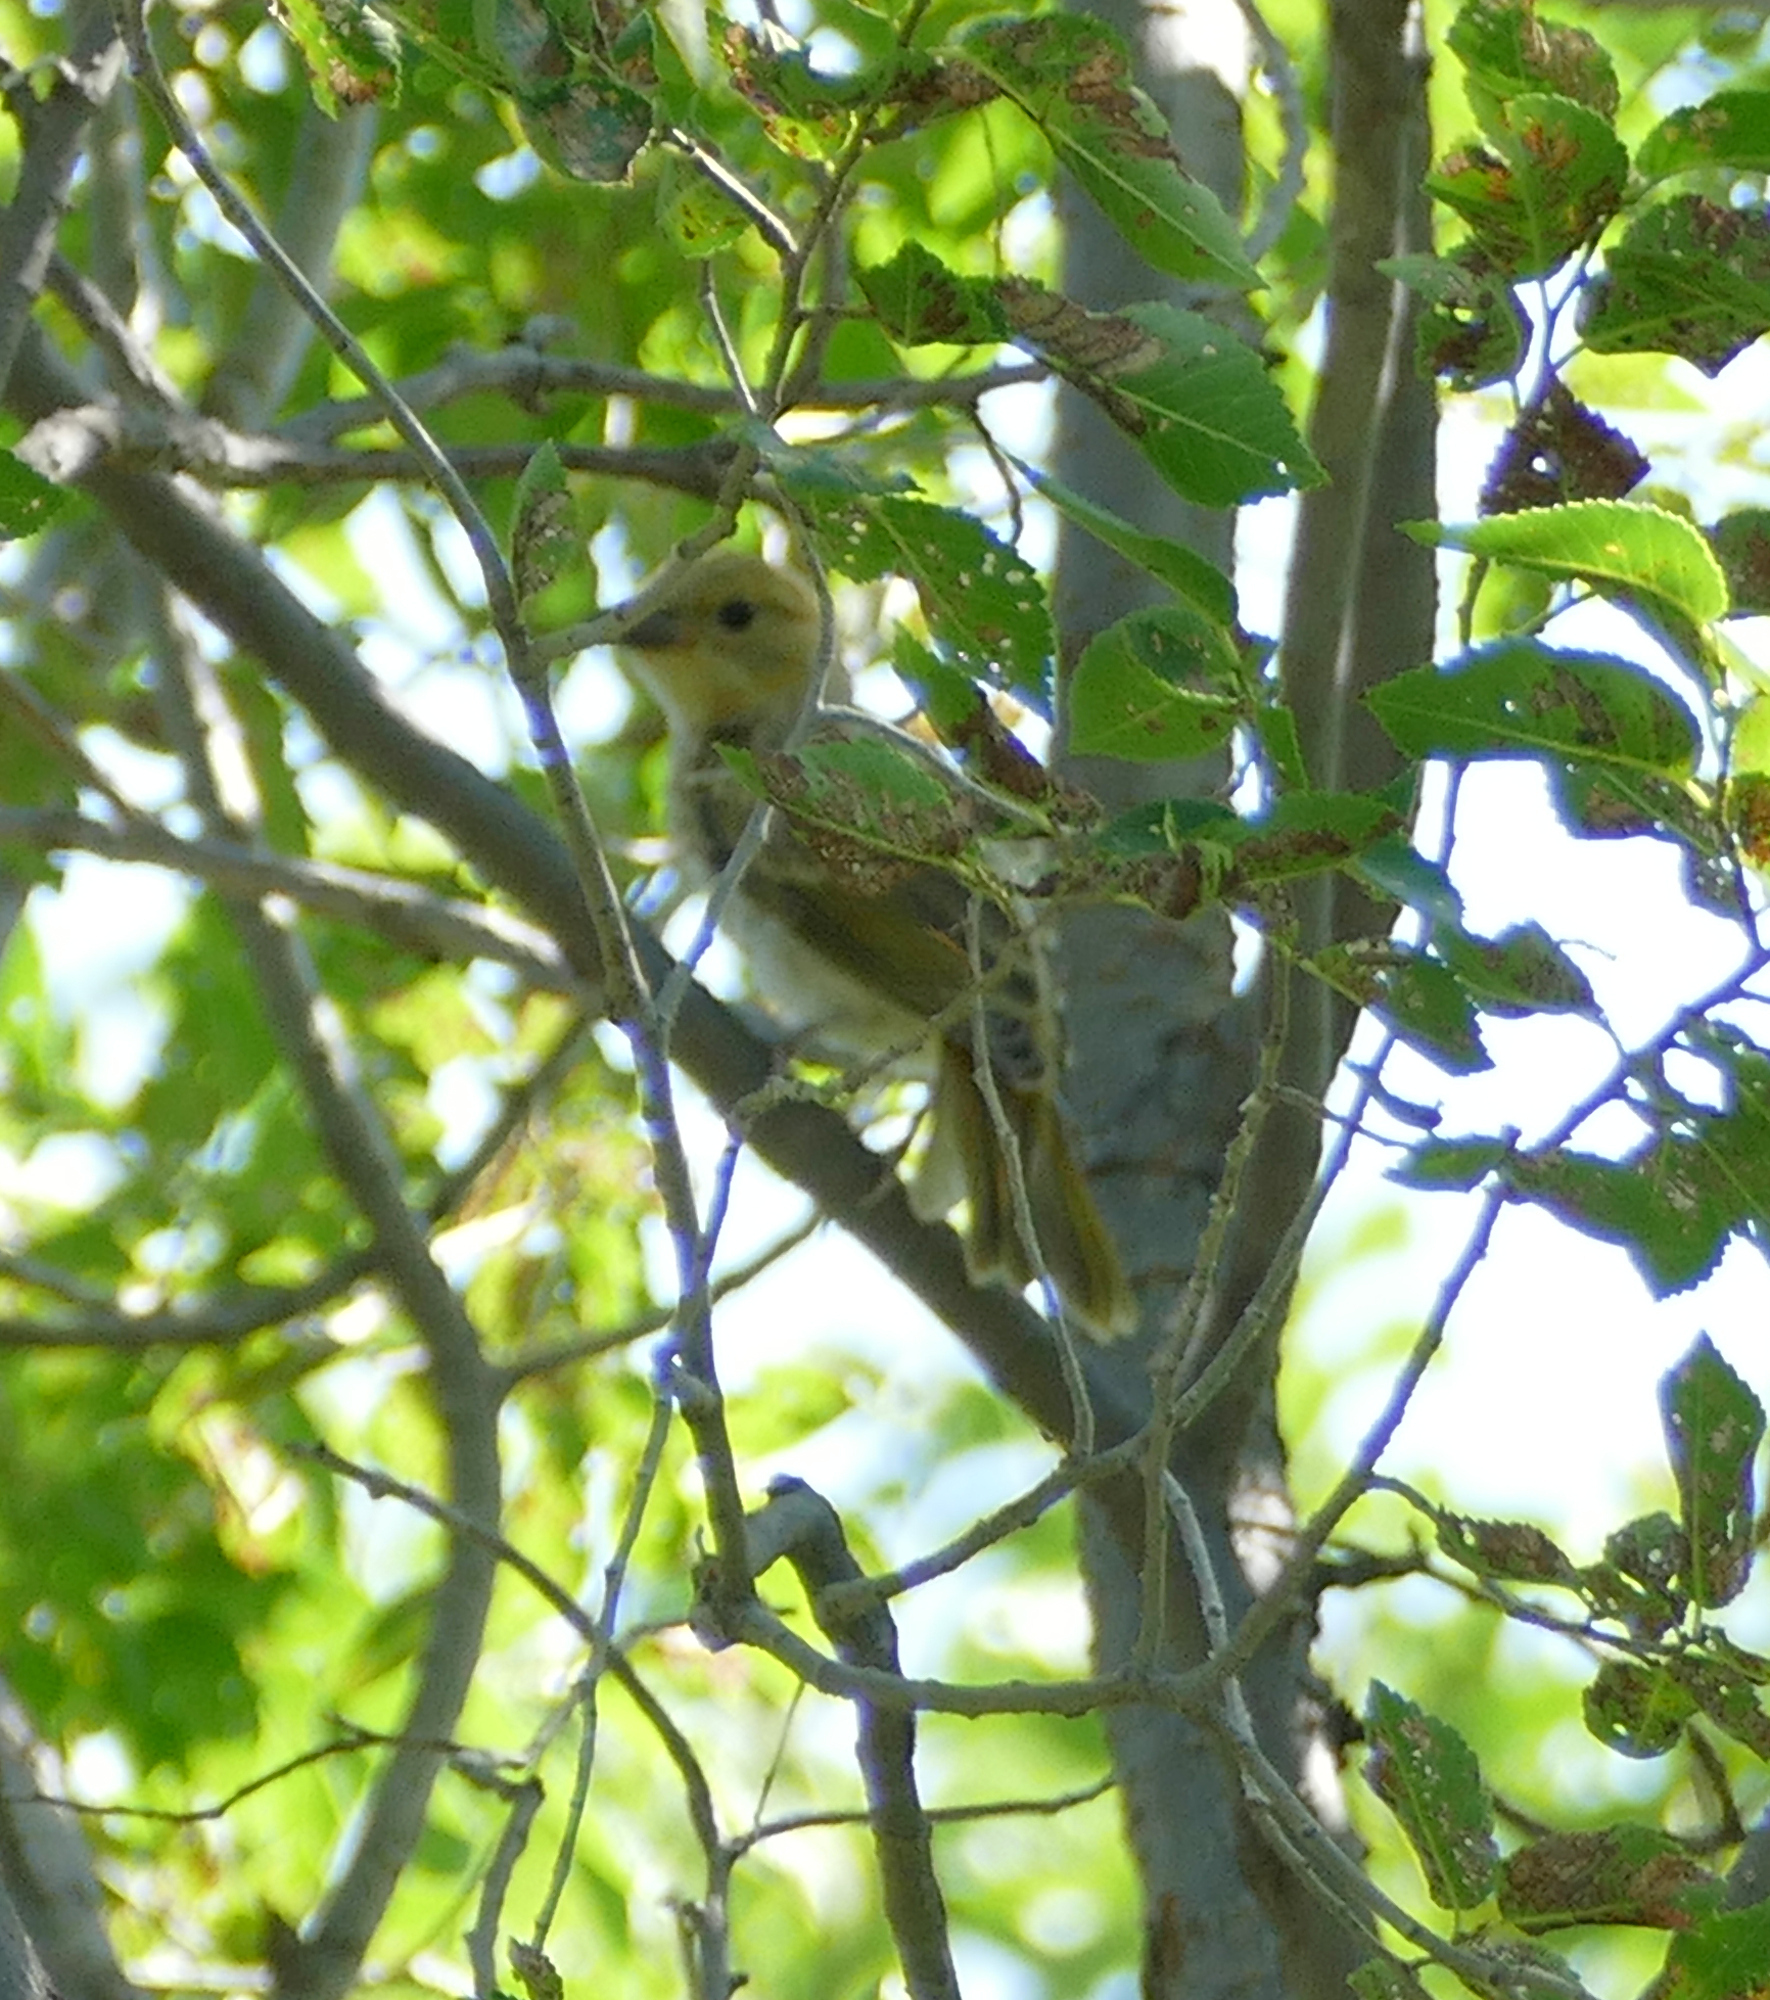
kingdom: Animalia
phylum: Chordata
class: Aves
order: Passeriformes
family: Cardinalidae
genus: Piranga
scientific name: Piranga rubra
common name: Summer tanager
